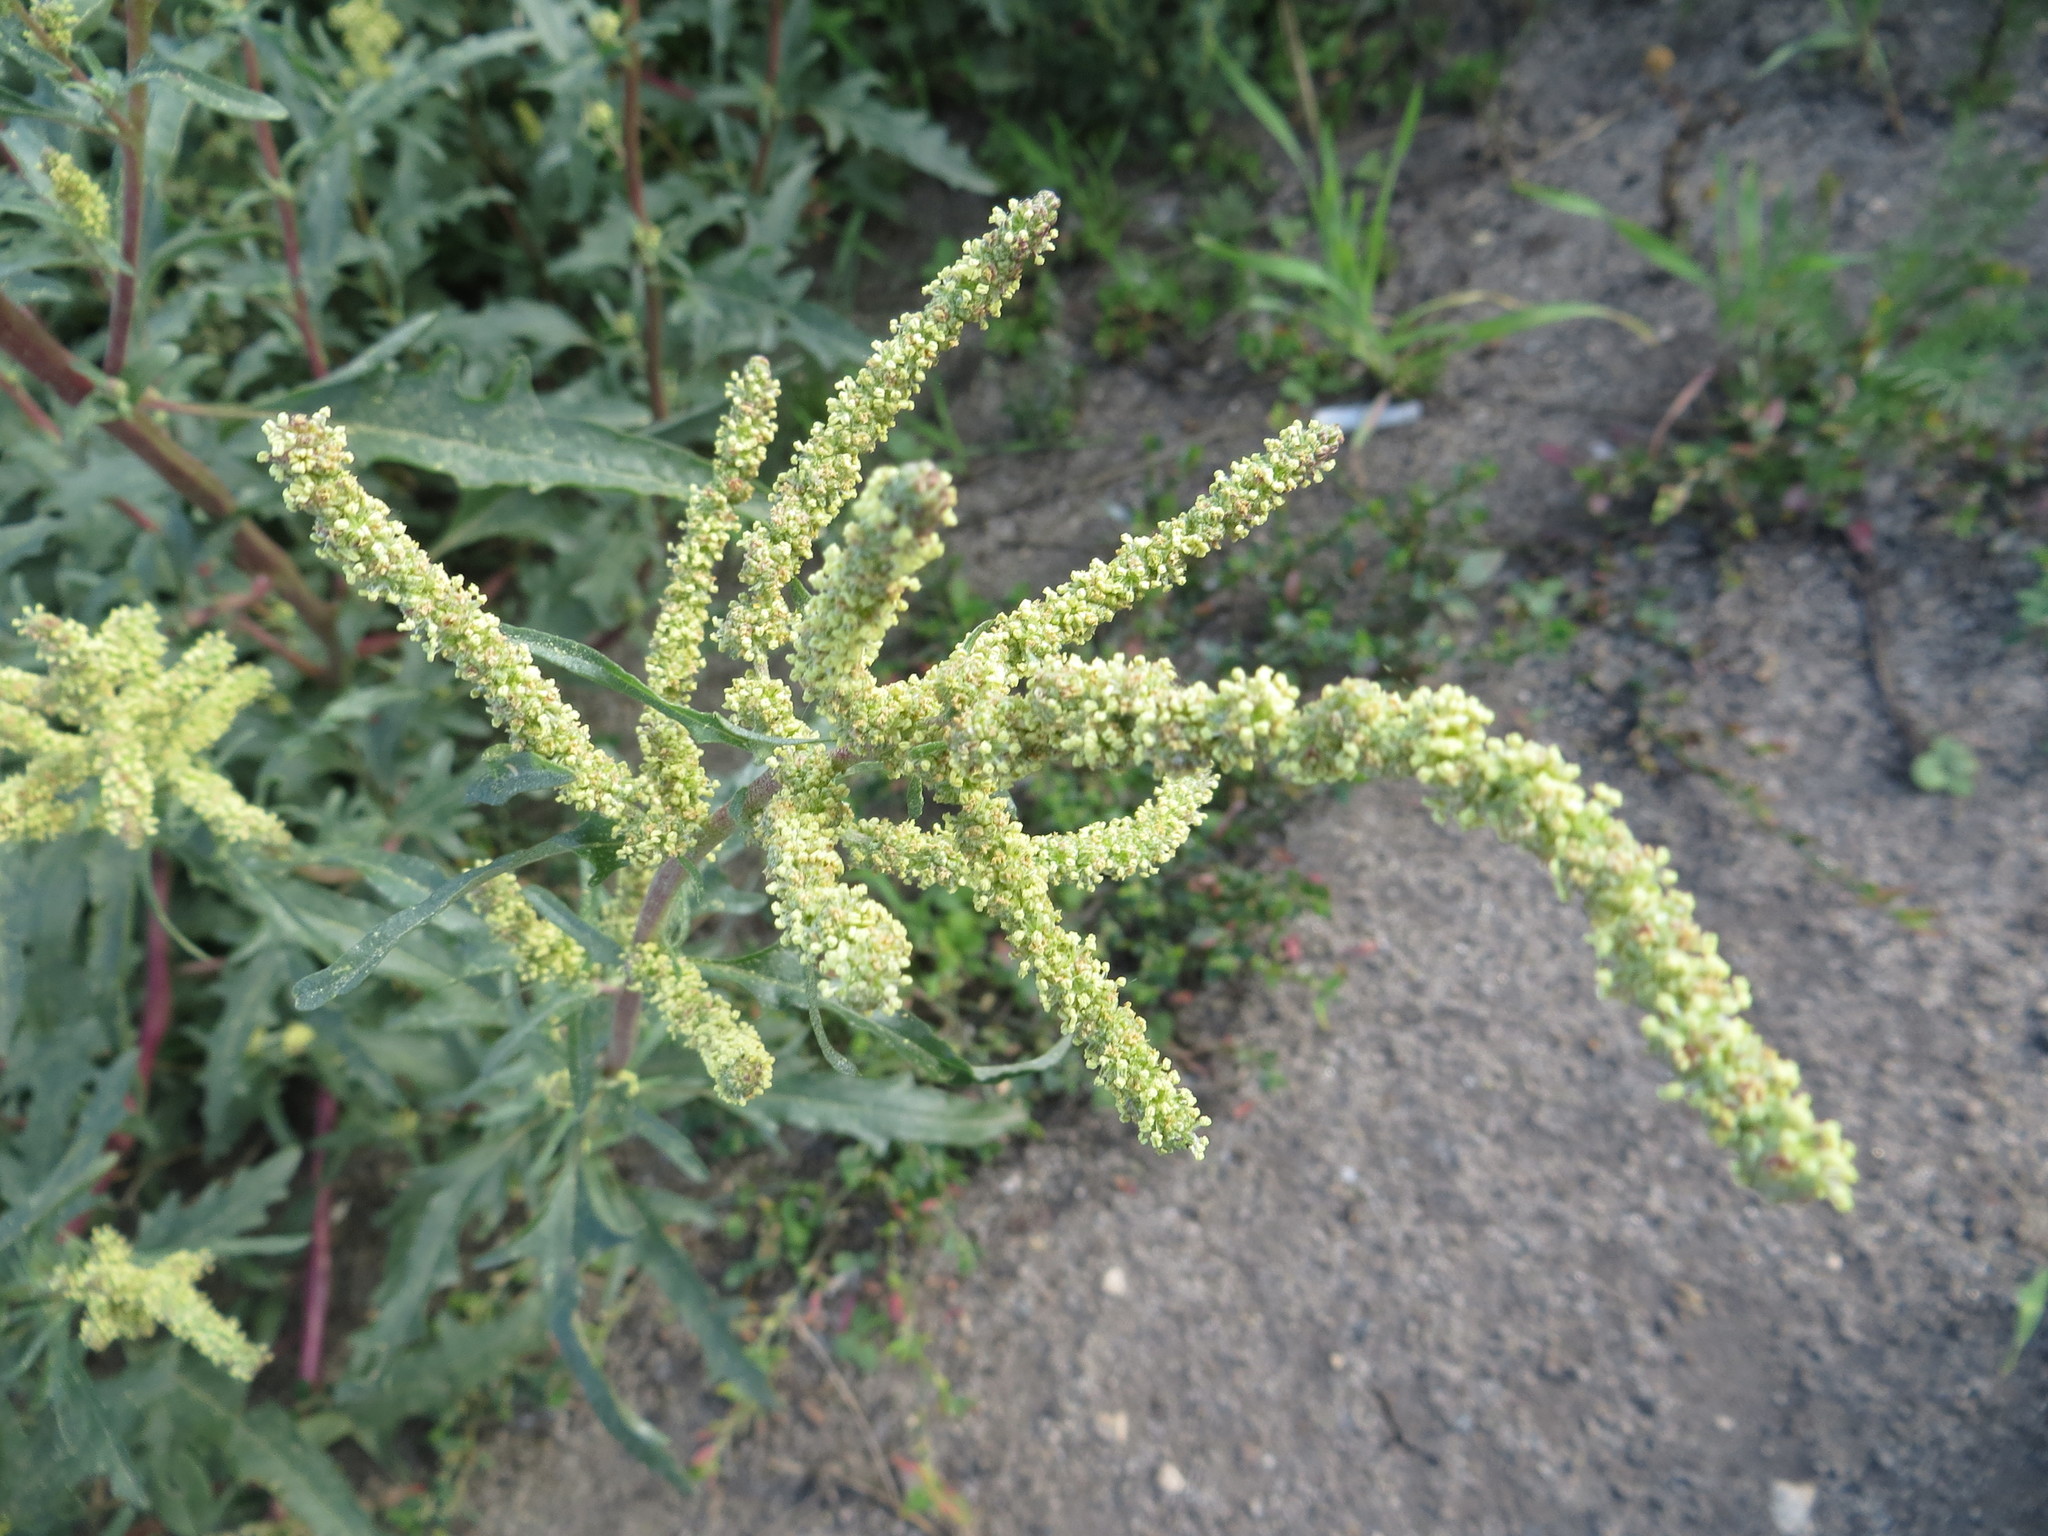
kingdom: Plantae
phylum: Tracheophyta
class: Magnoliopsida
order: Caryophyllales
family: Amaranthaceae
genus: Atriplex
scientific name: Atriplex tatarica
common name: Tatarian orache
